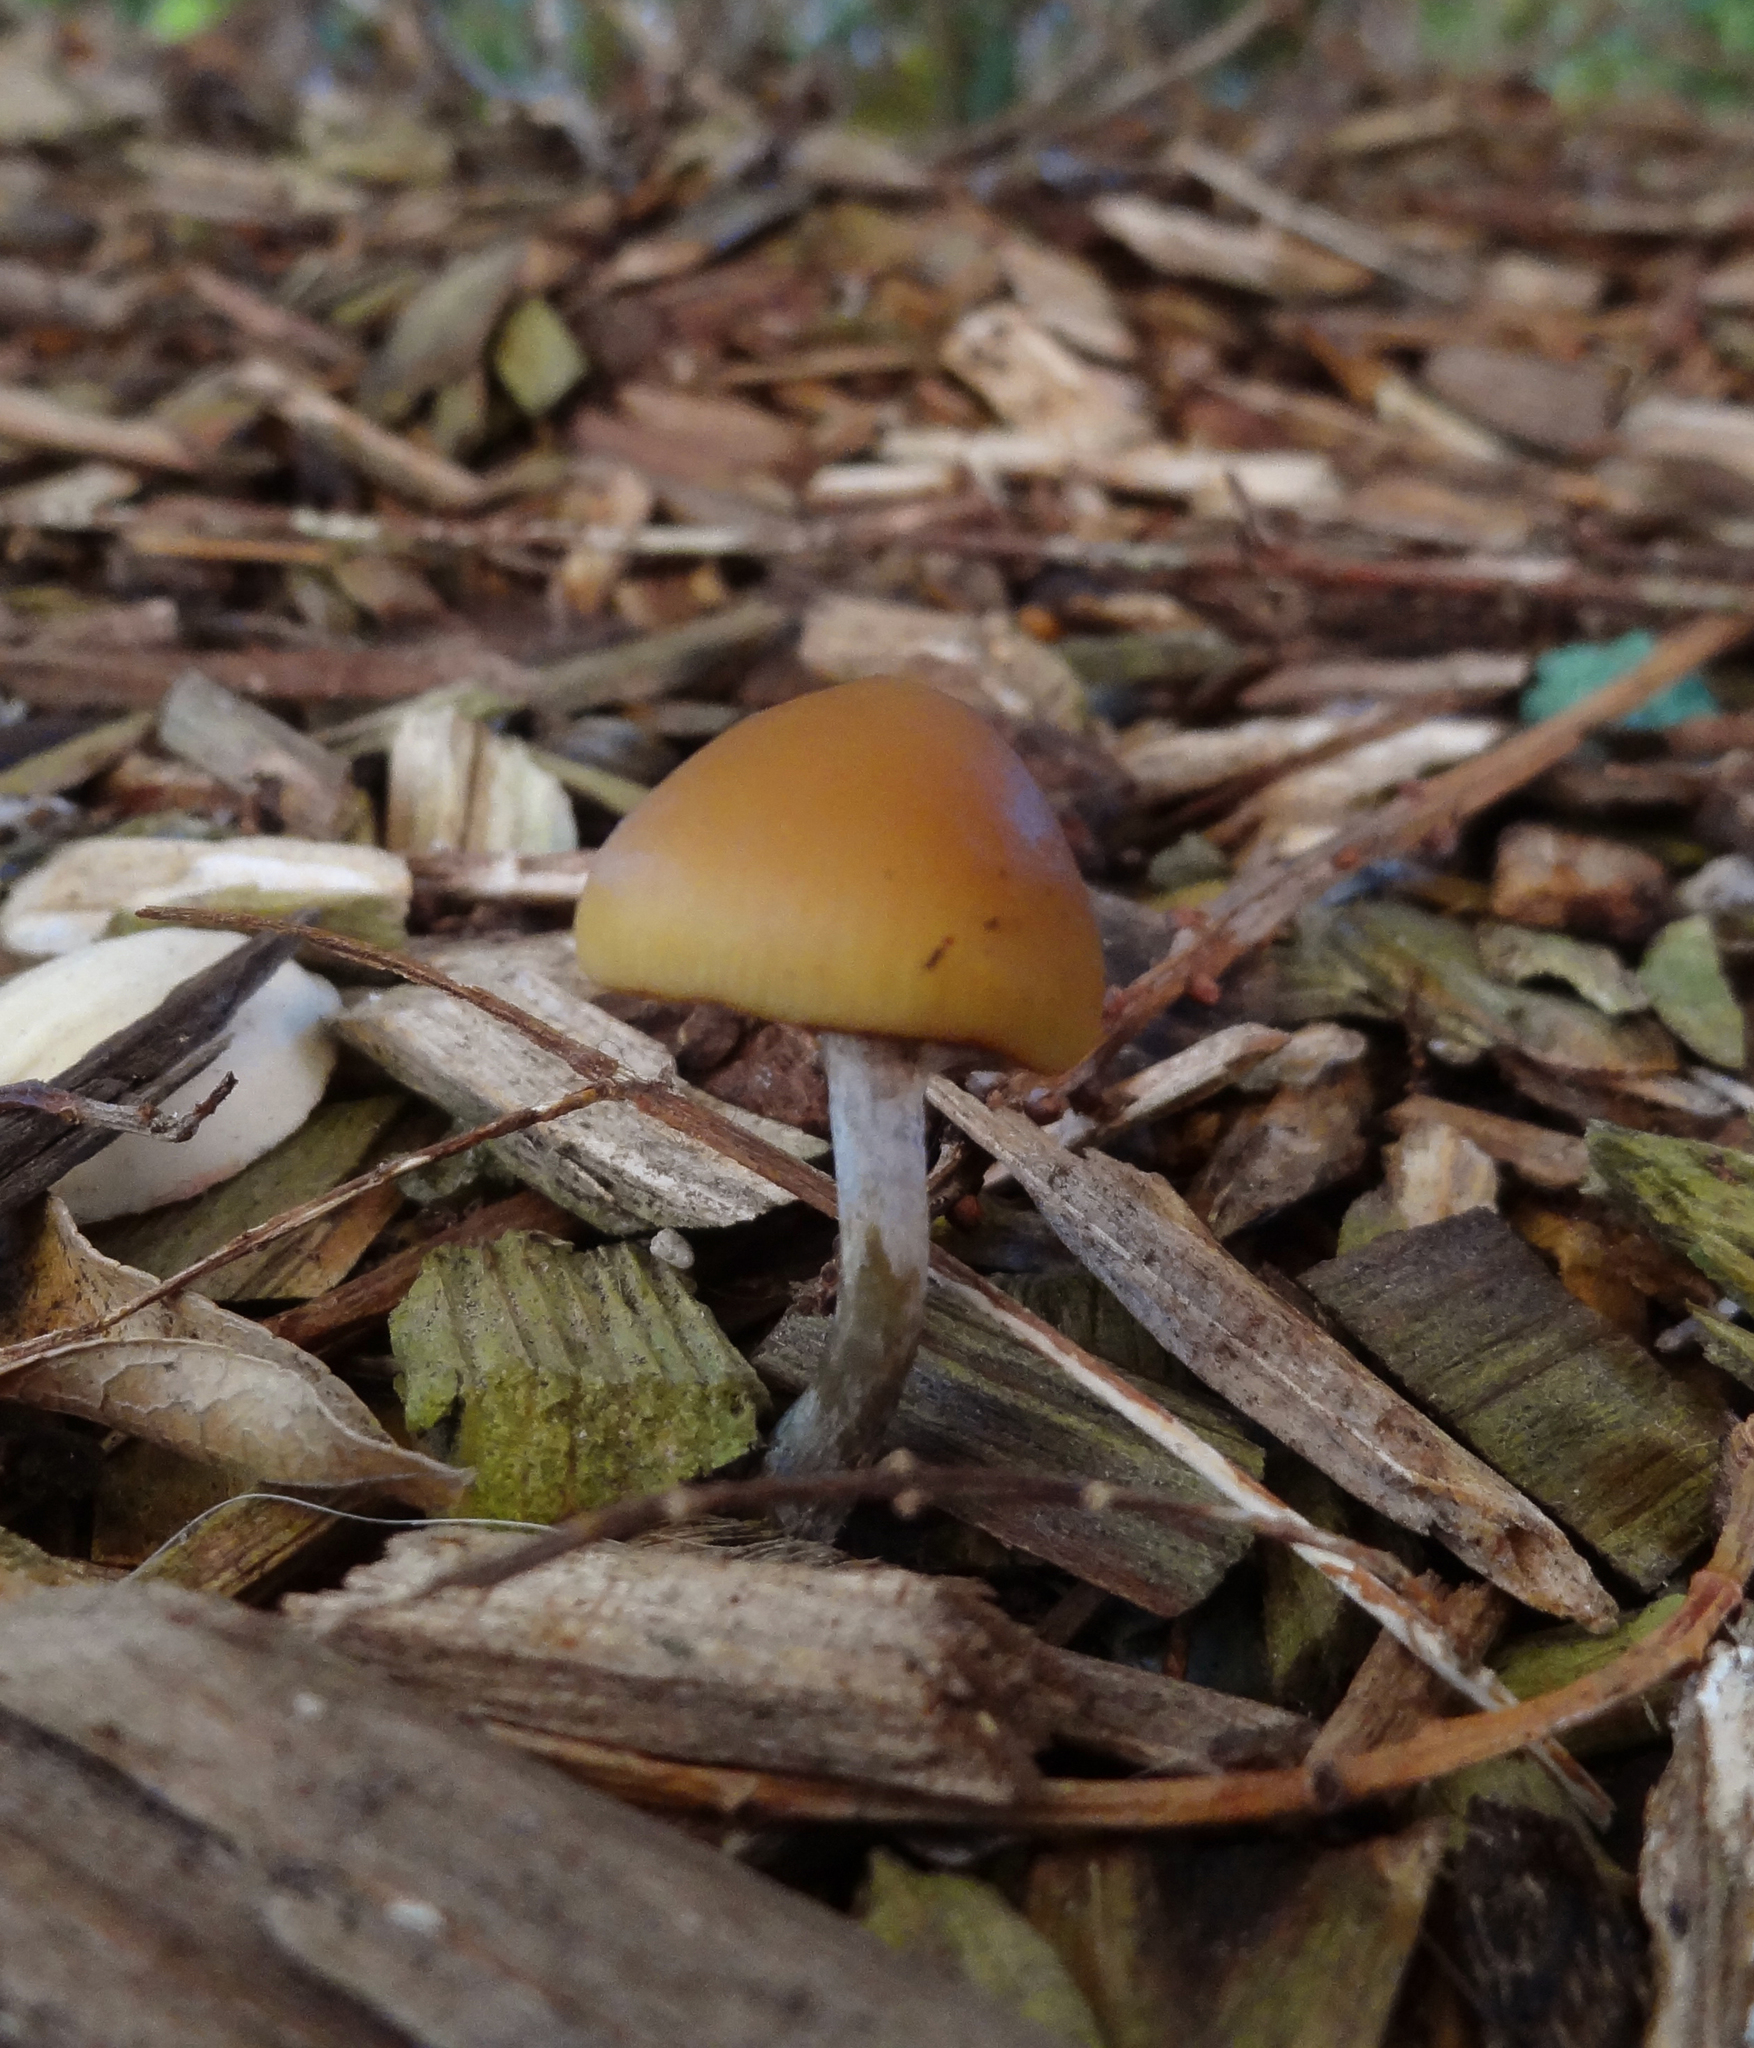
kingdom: Fungi
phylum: Basidiomycota
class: Agaricomycetes
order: Agaricales
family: Hymenogastraceae
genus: Psilocybe
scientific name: Psilocybe allenii
